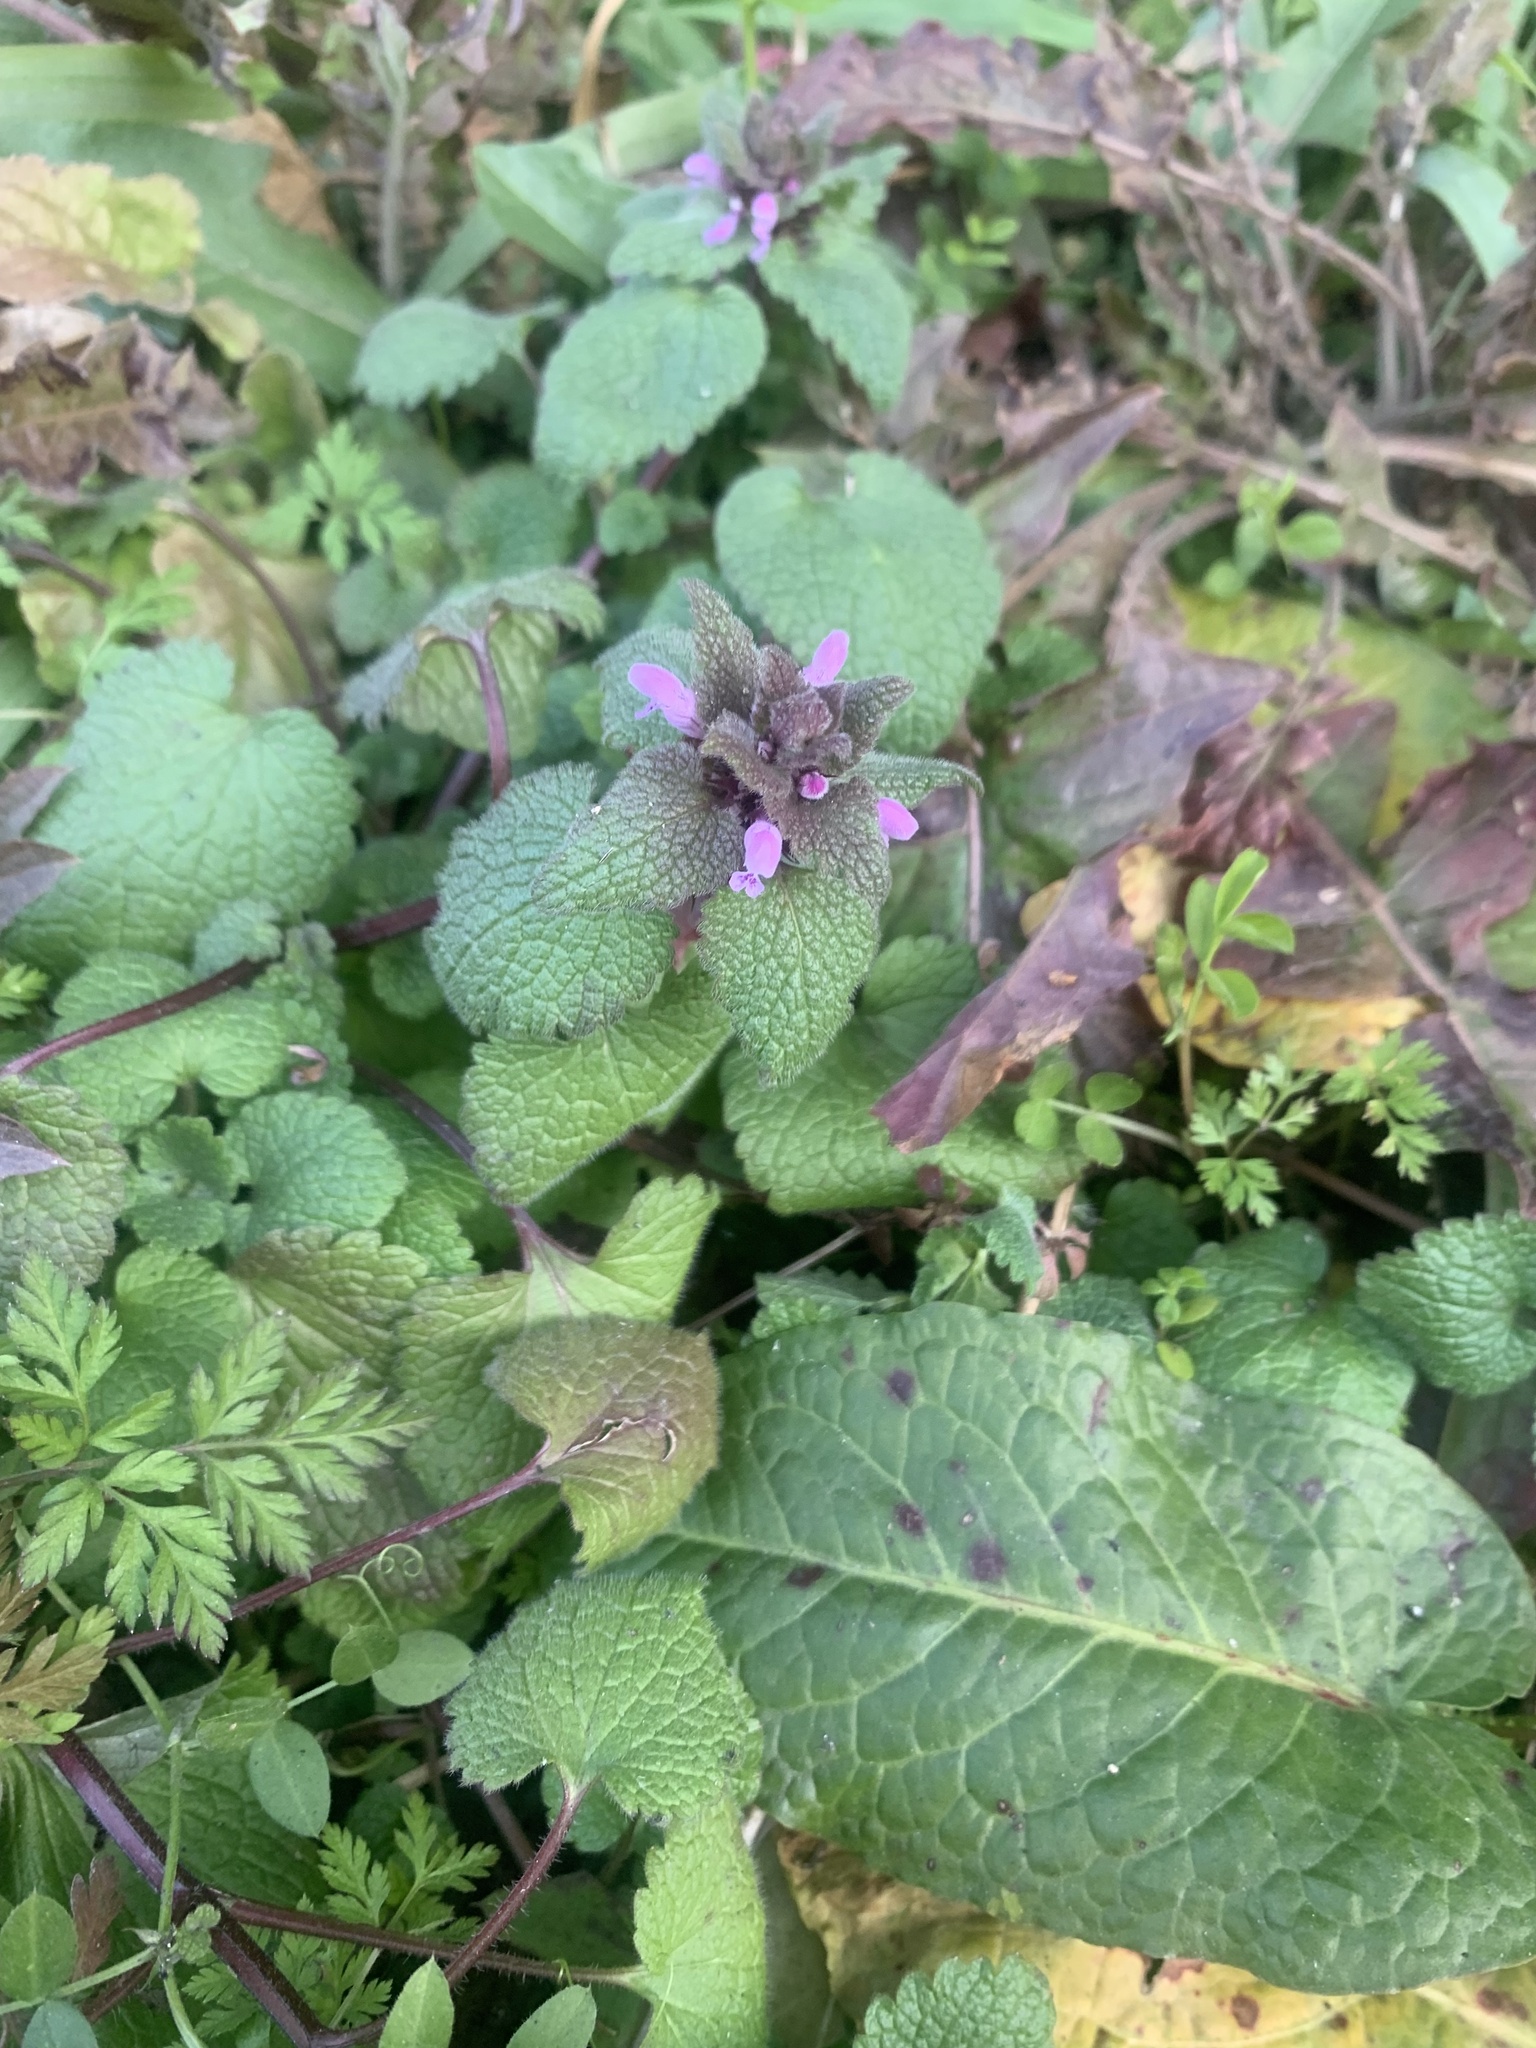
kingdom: Plantae
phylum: Tracheophyta
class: Magnoliopsida
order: Lamiales
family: Lamiaceae
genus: Lamium
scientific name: Lamium purpureum
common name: Red dead-nettle
